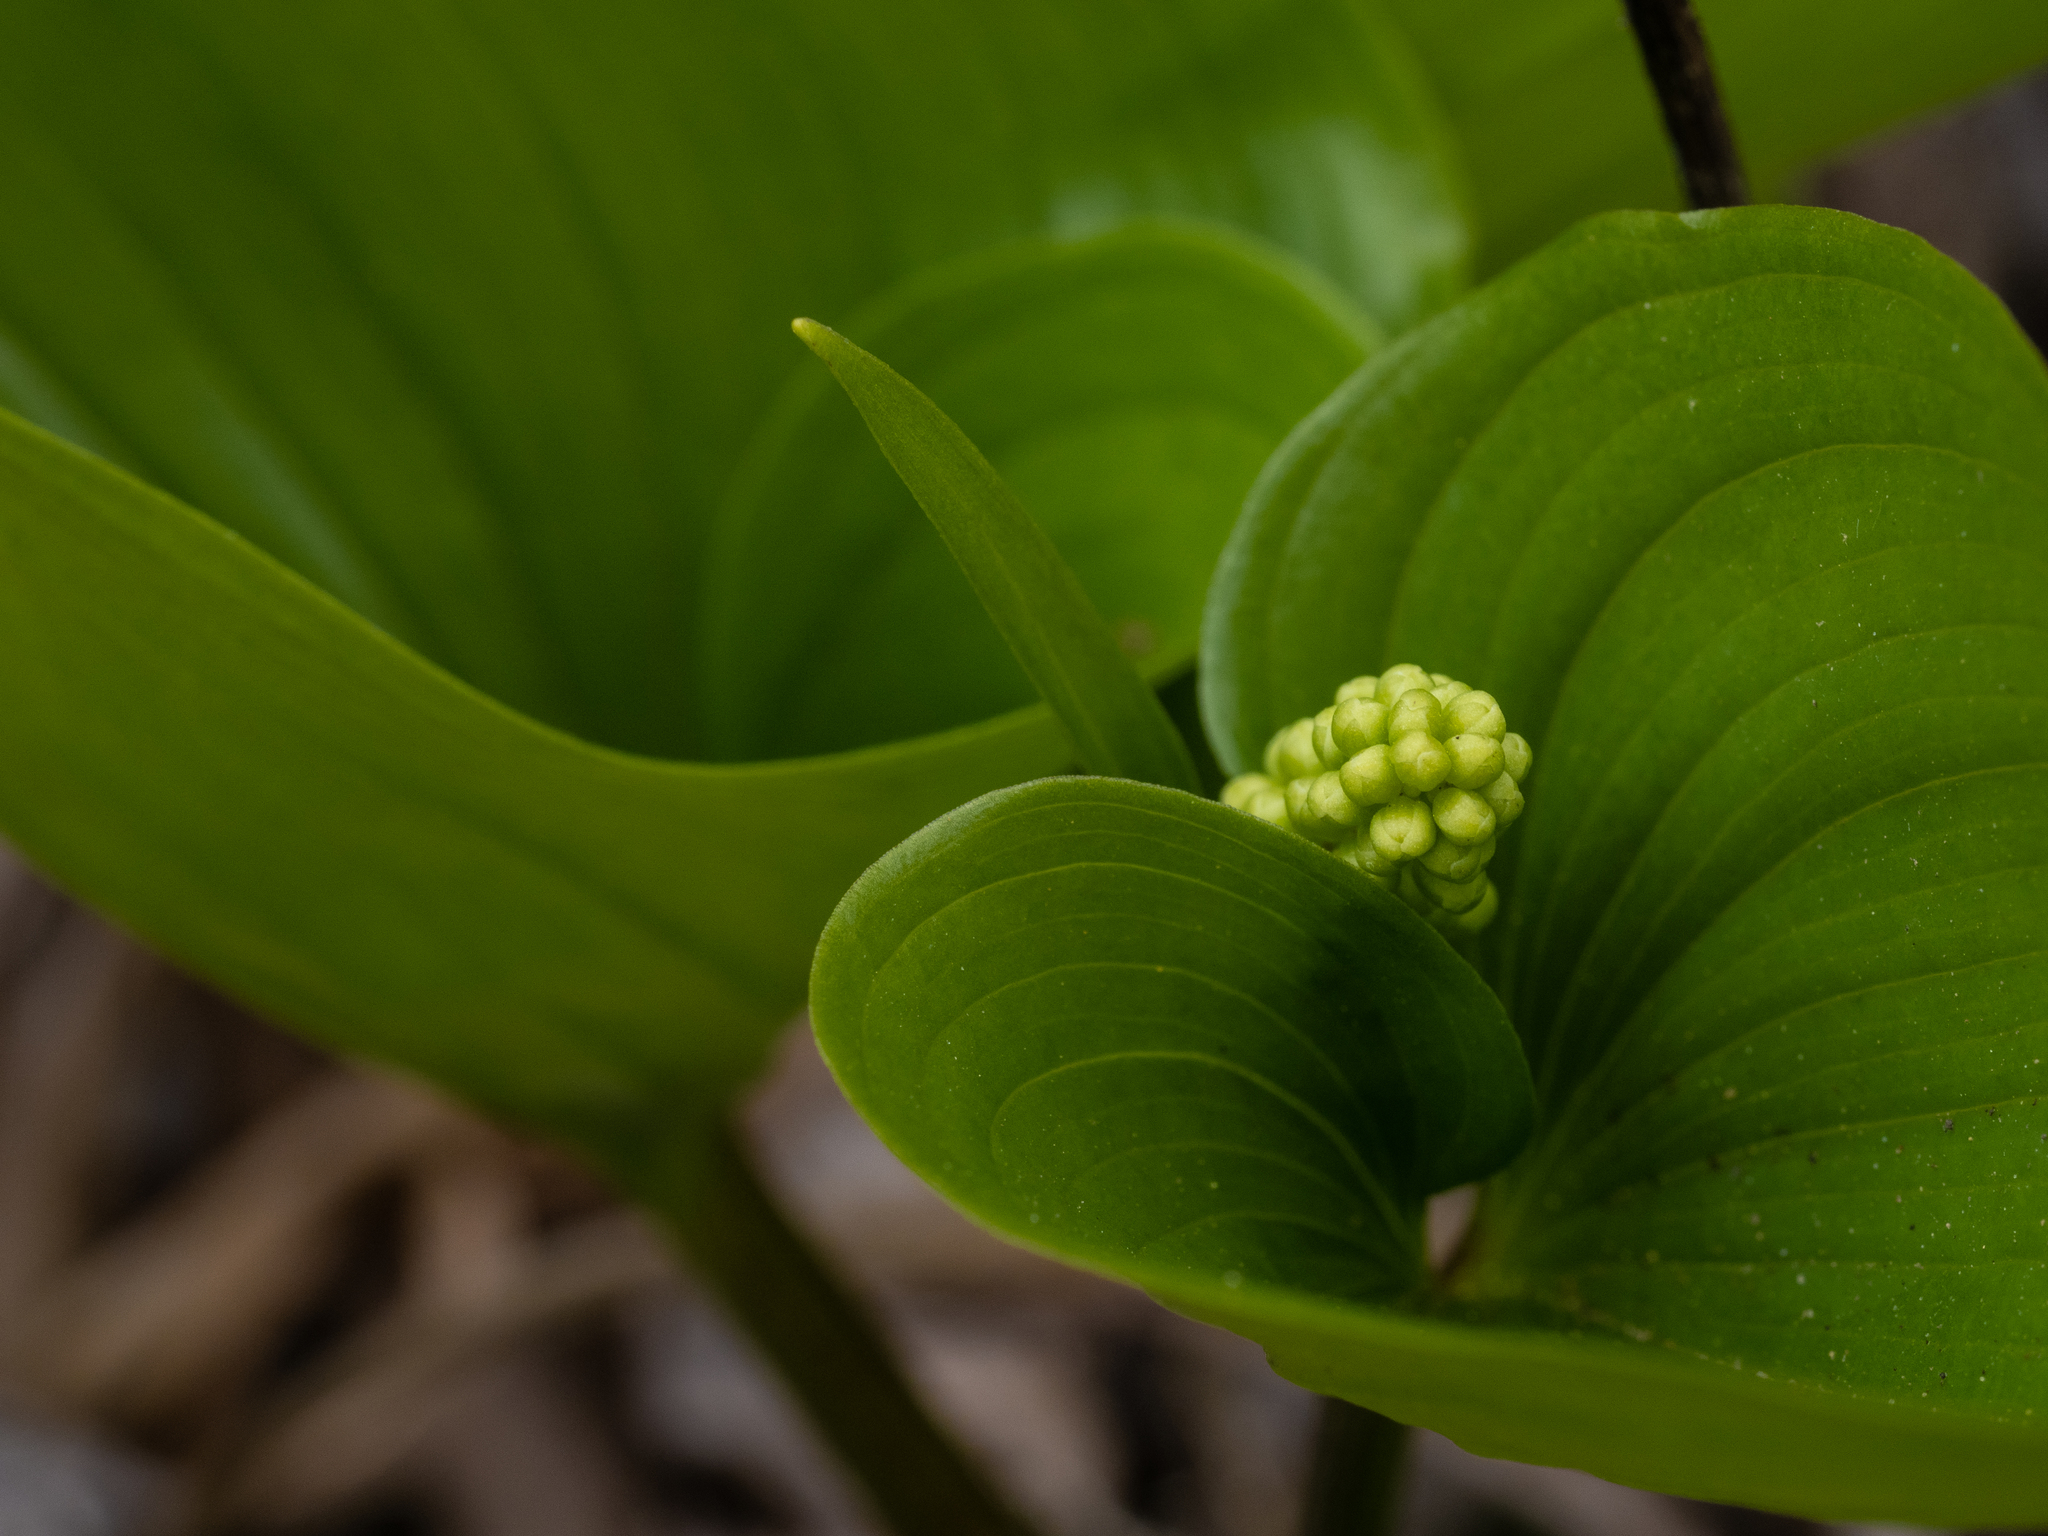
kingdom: Plantae
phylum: Tracheophyta
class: Liliopsida
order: Asparagales
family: Asparagaceae
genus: Maianthemum
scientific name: Maianthemum dilatatum
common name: False lily-of-the-valley
